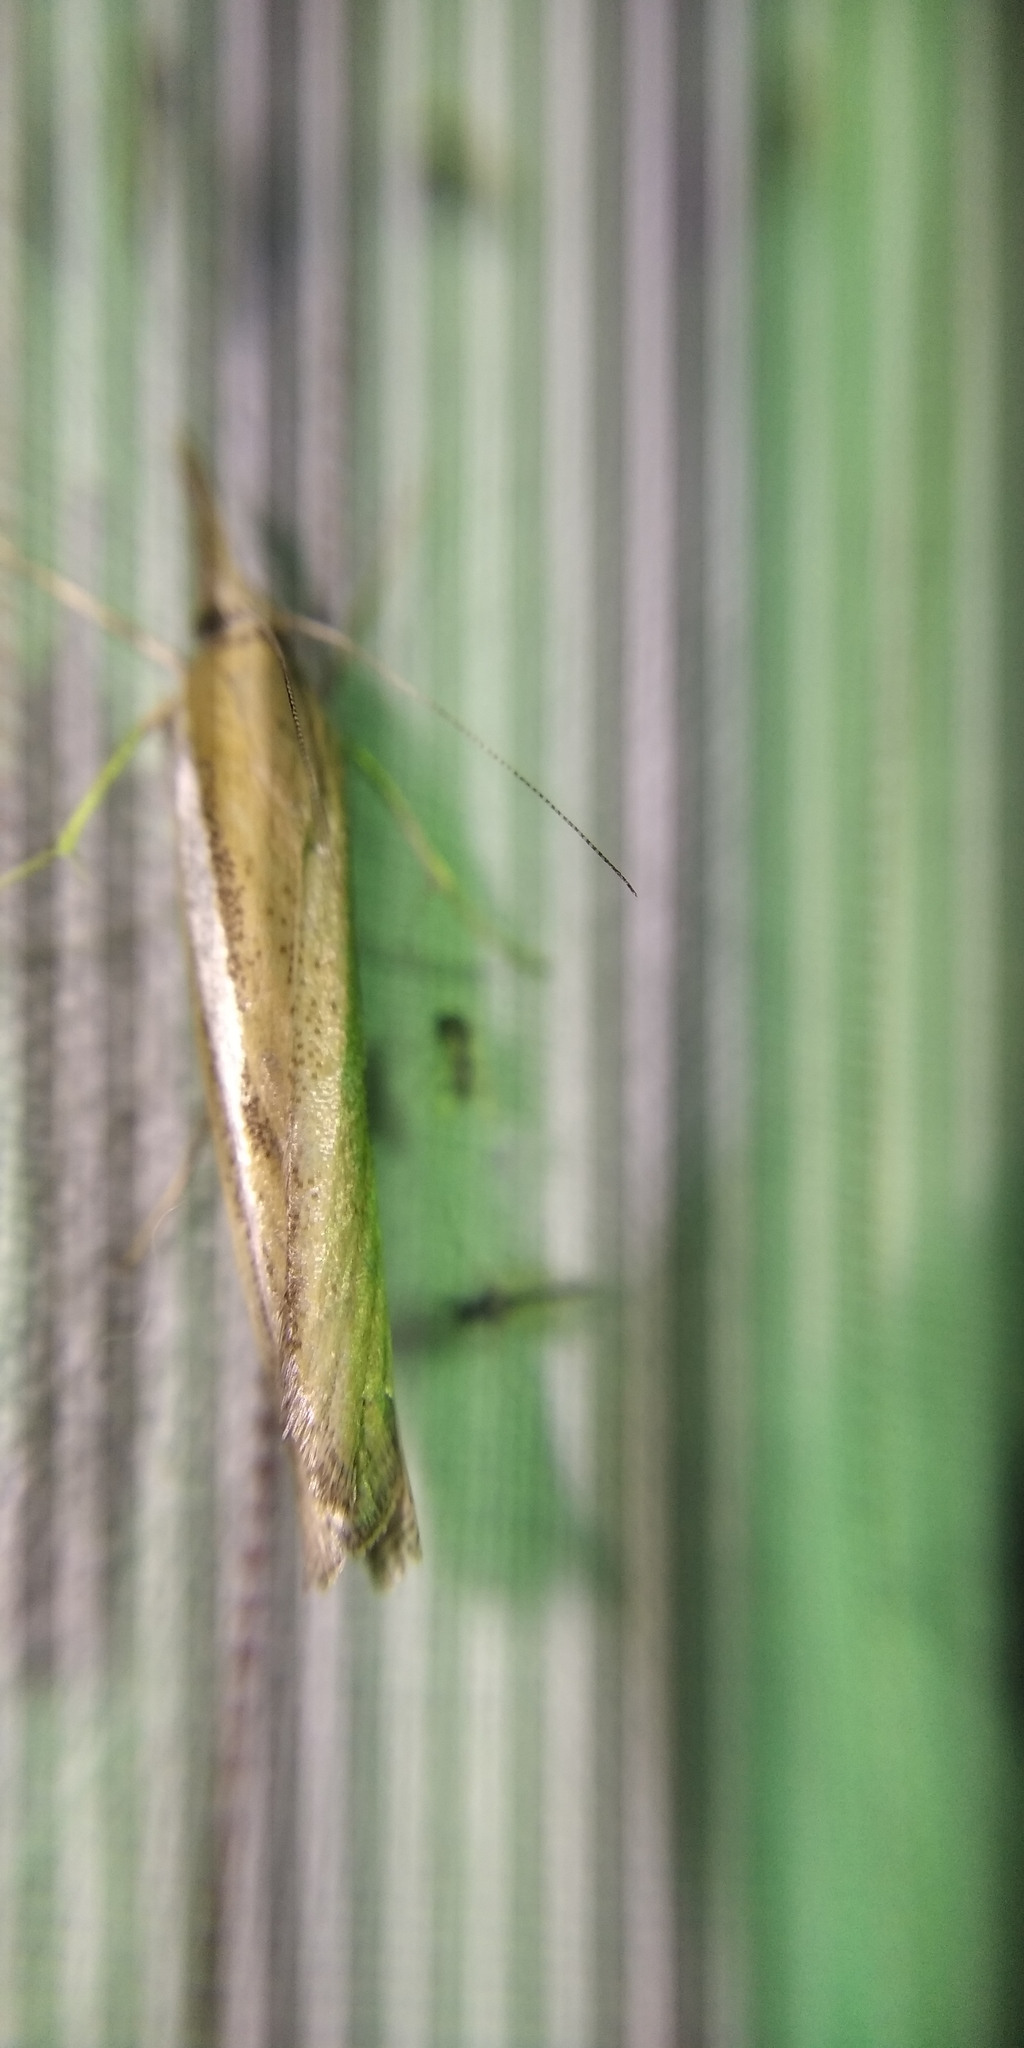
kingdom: Animalia
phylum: Arthropoda
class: Insecta
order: Lepidoptera
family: Crambidae
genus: Agriphila
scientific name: Agriphila tristellus
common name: Common grass-veneer
